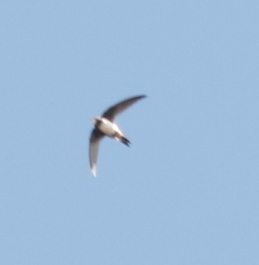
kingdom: Animalia
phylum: Chordata
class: Aves
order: Apodiformes
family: Apodidae
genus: Tachymarptis
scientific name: Tachymarptis melba
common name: Alpine swift
